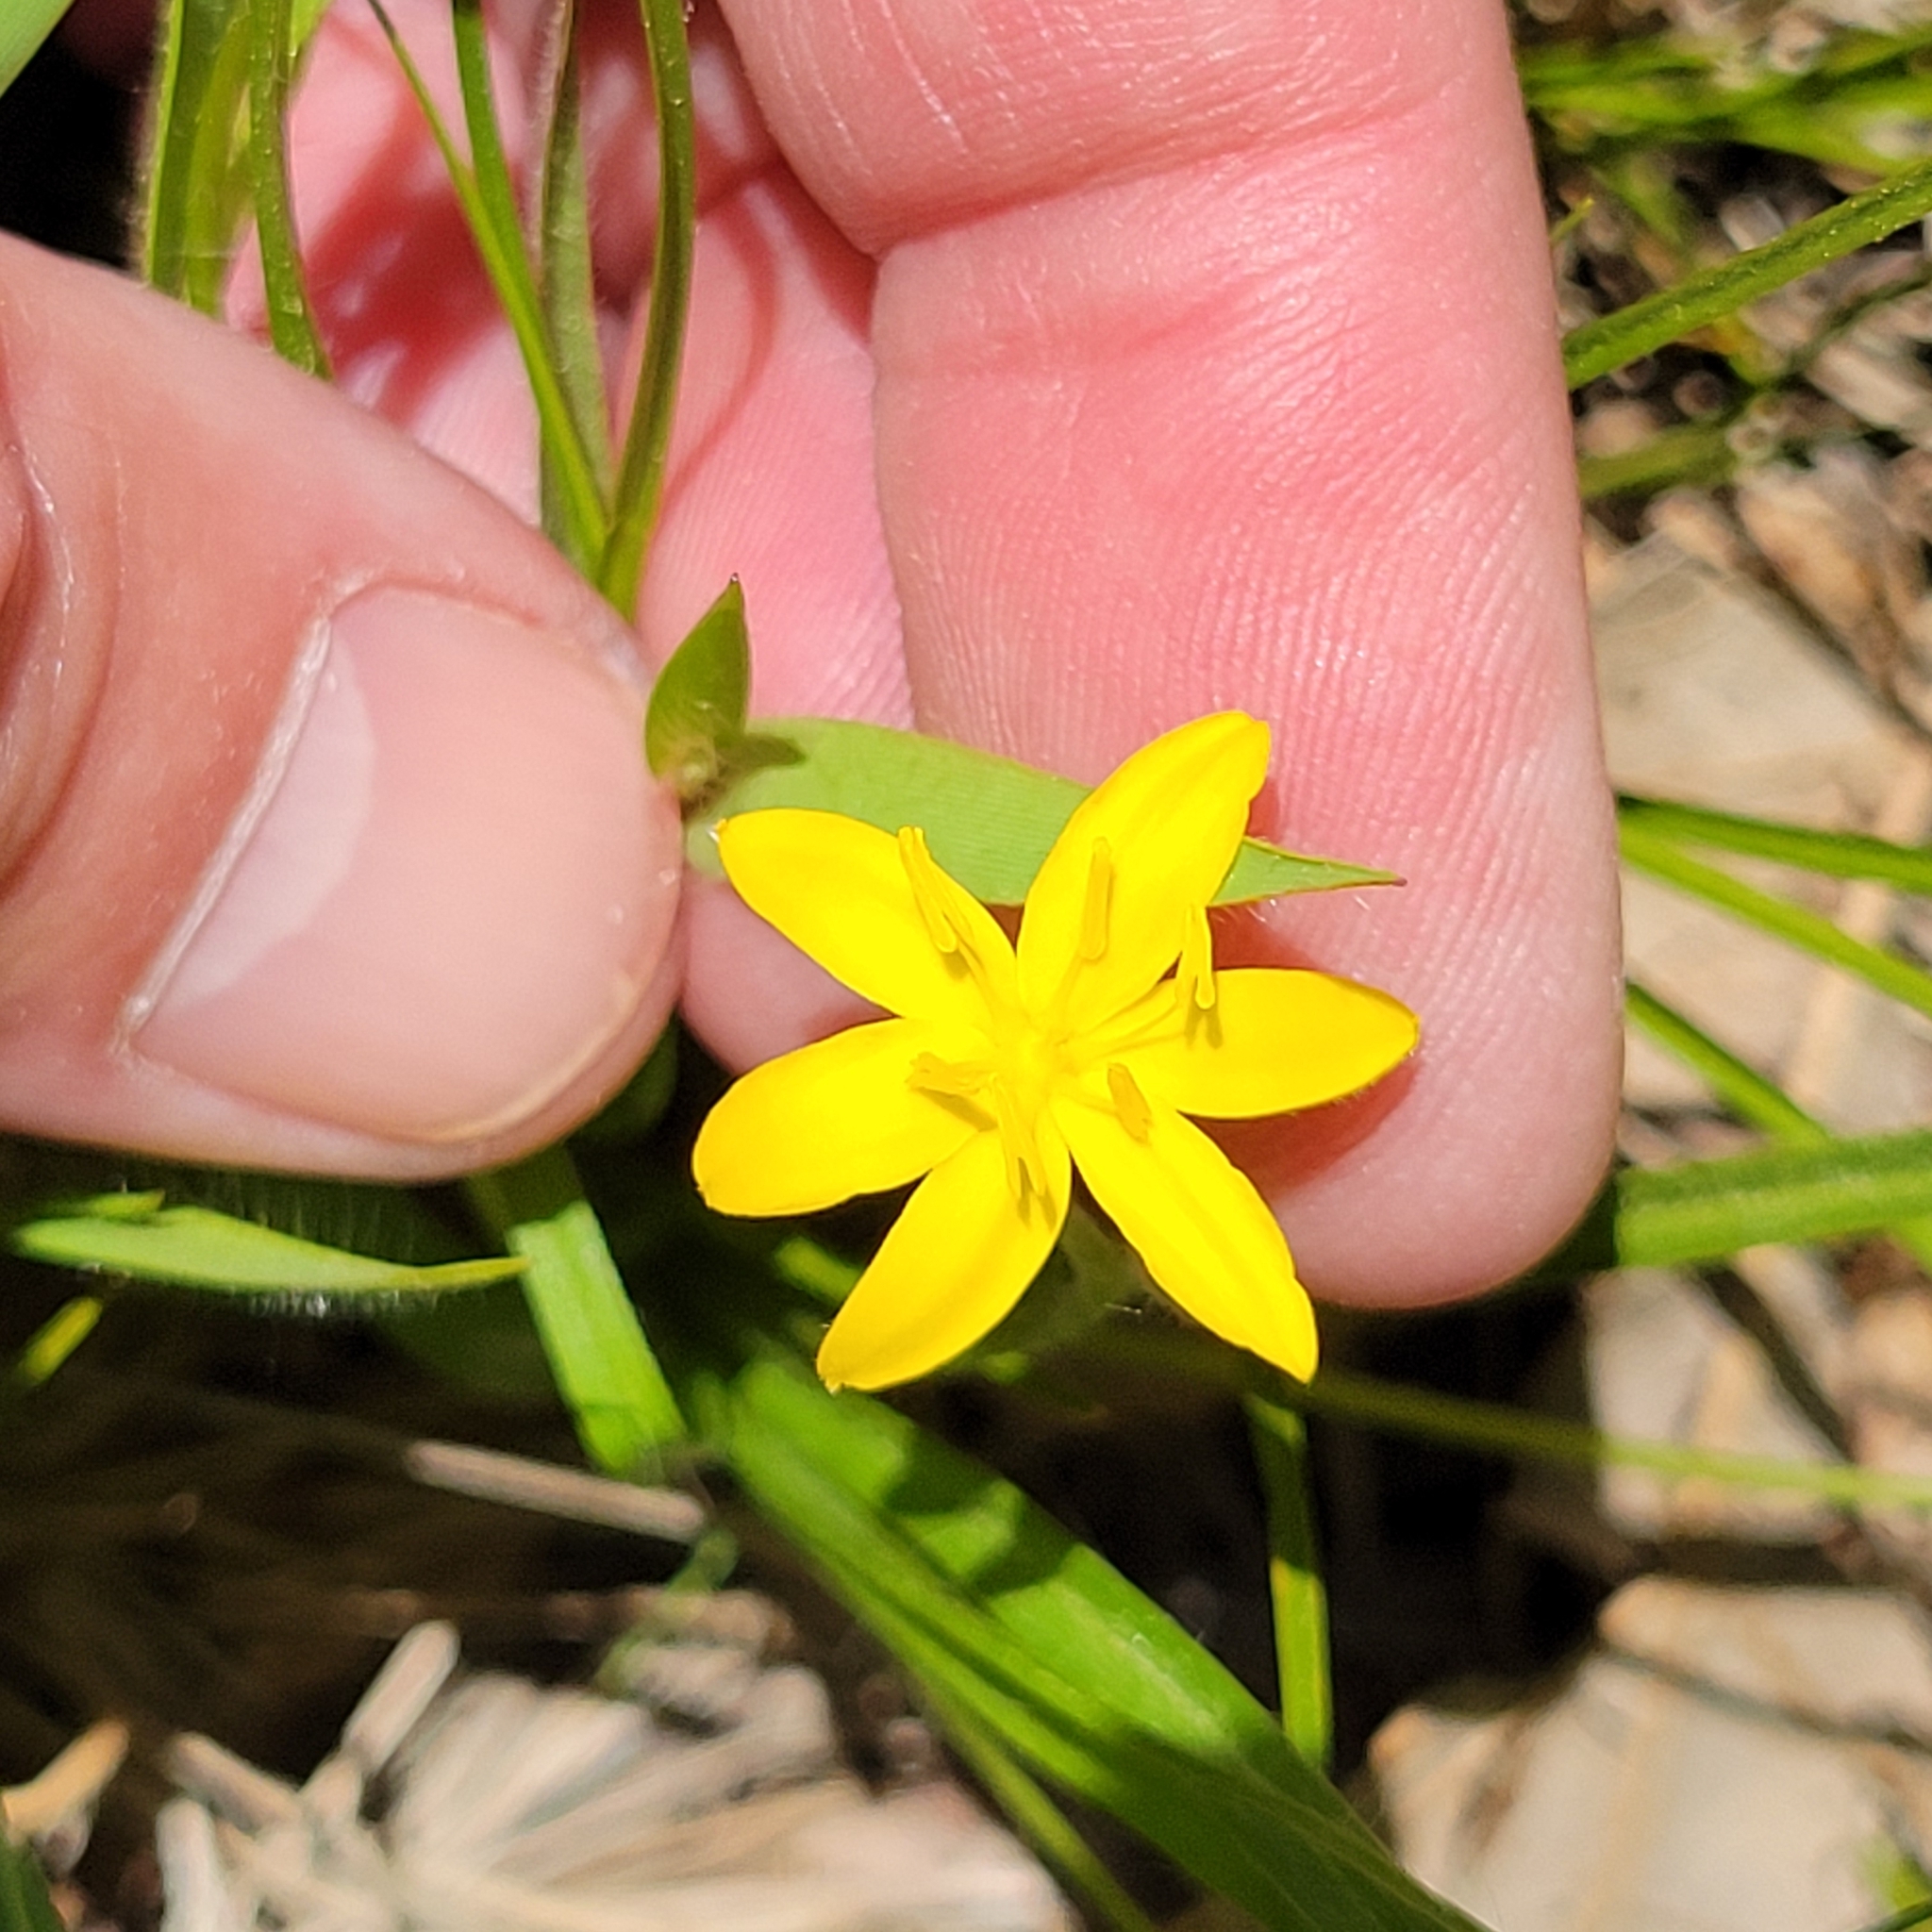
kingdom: Plantae
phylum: Tracheophyta
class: Liliopsida
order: Asparagales
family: Hypoxidaceae
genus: Hypoxis
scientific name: Hypoxis hirsuta
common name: Common goldstar
